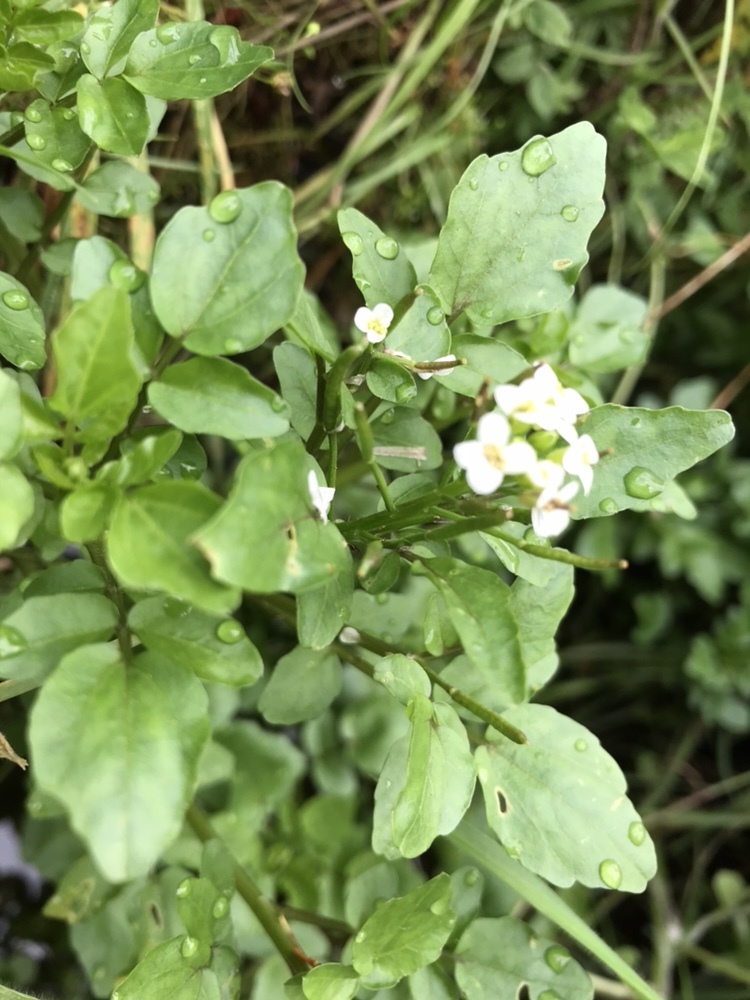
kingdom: Plantae
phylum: Tracheophyta
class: Magnoliopsida
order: Brassicales
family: Brassicaceae
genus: Nasturtium
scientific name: Nasturtium officinale
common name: Watercress
